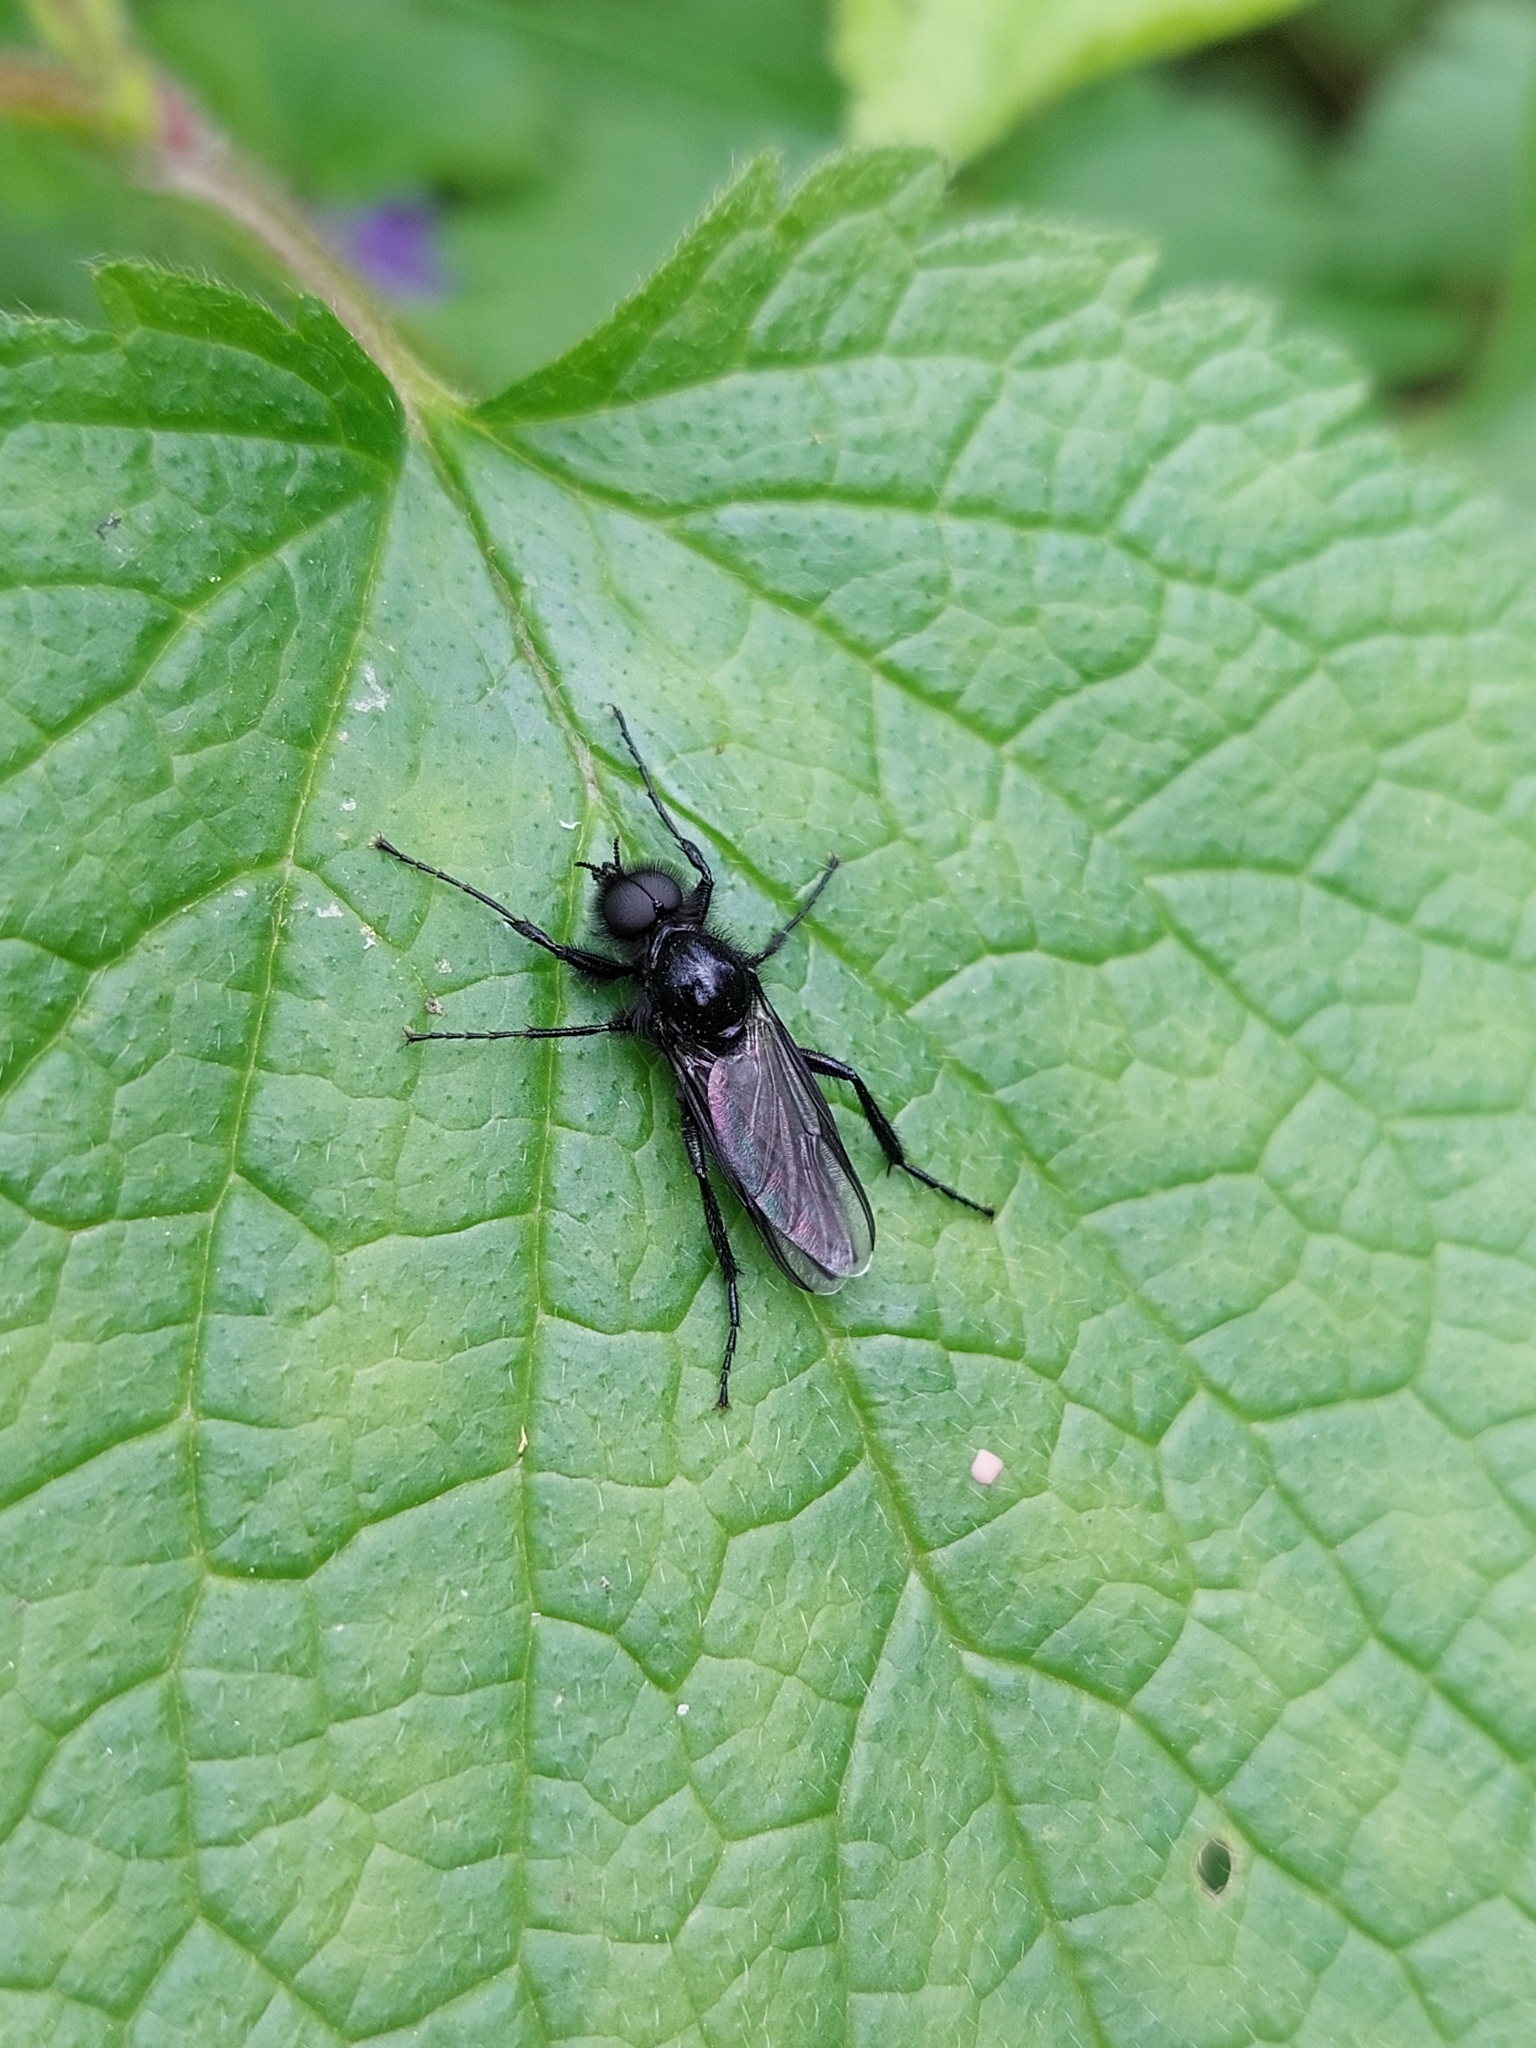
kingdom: Animalia
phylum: Arthropoda
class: Insecta
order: Diptera
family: Bibionidae
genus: Bibio
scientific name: Bibio marci
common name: St marks fly
